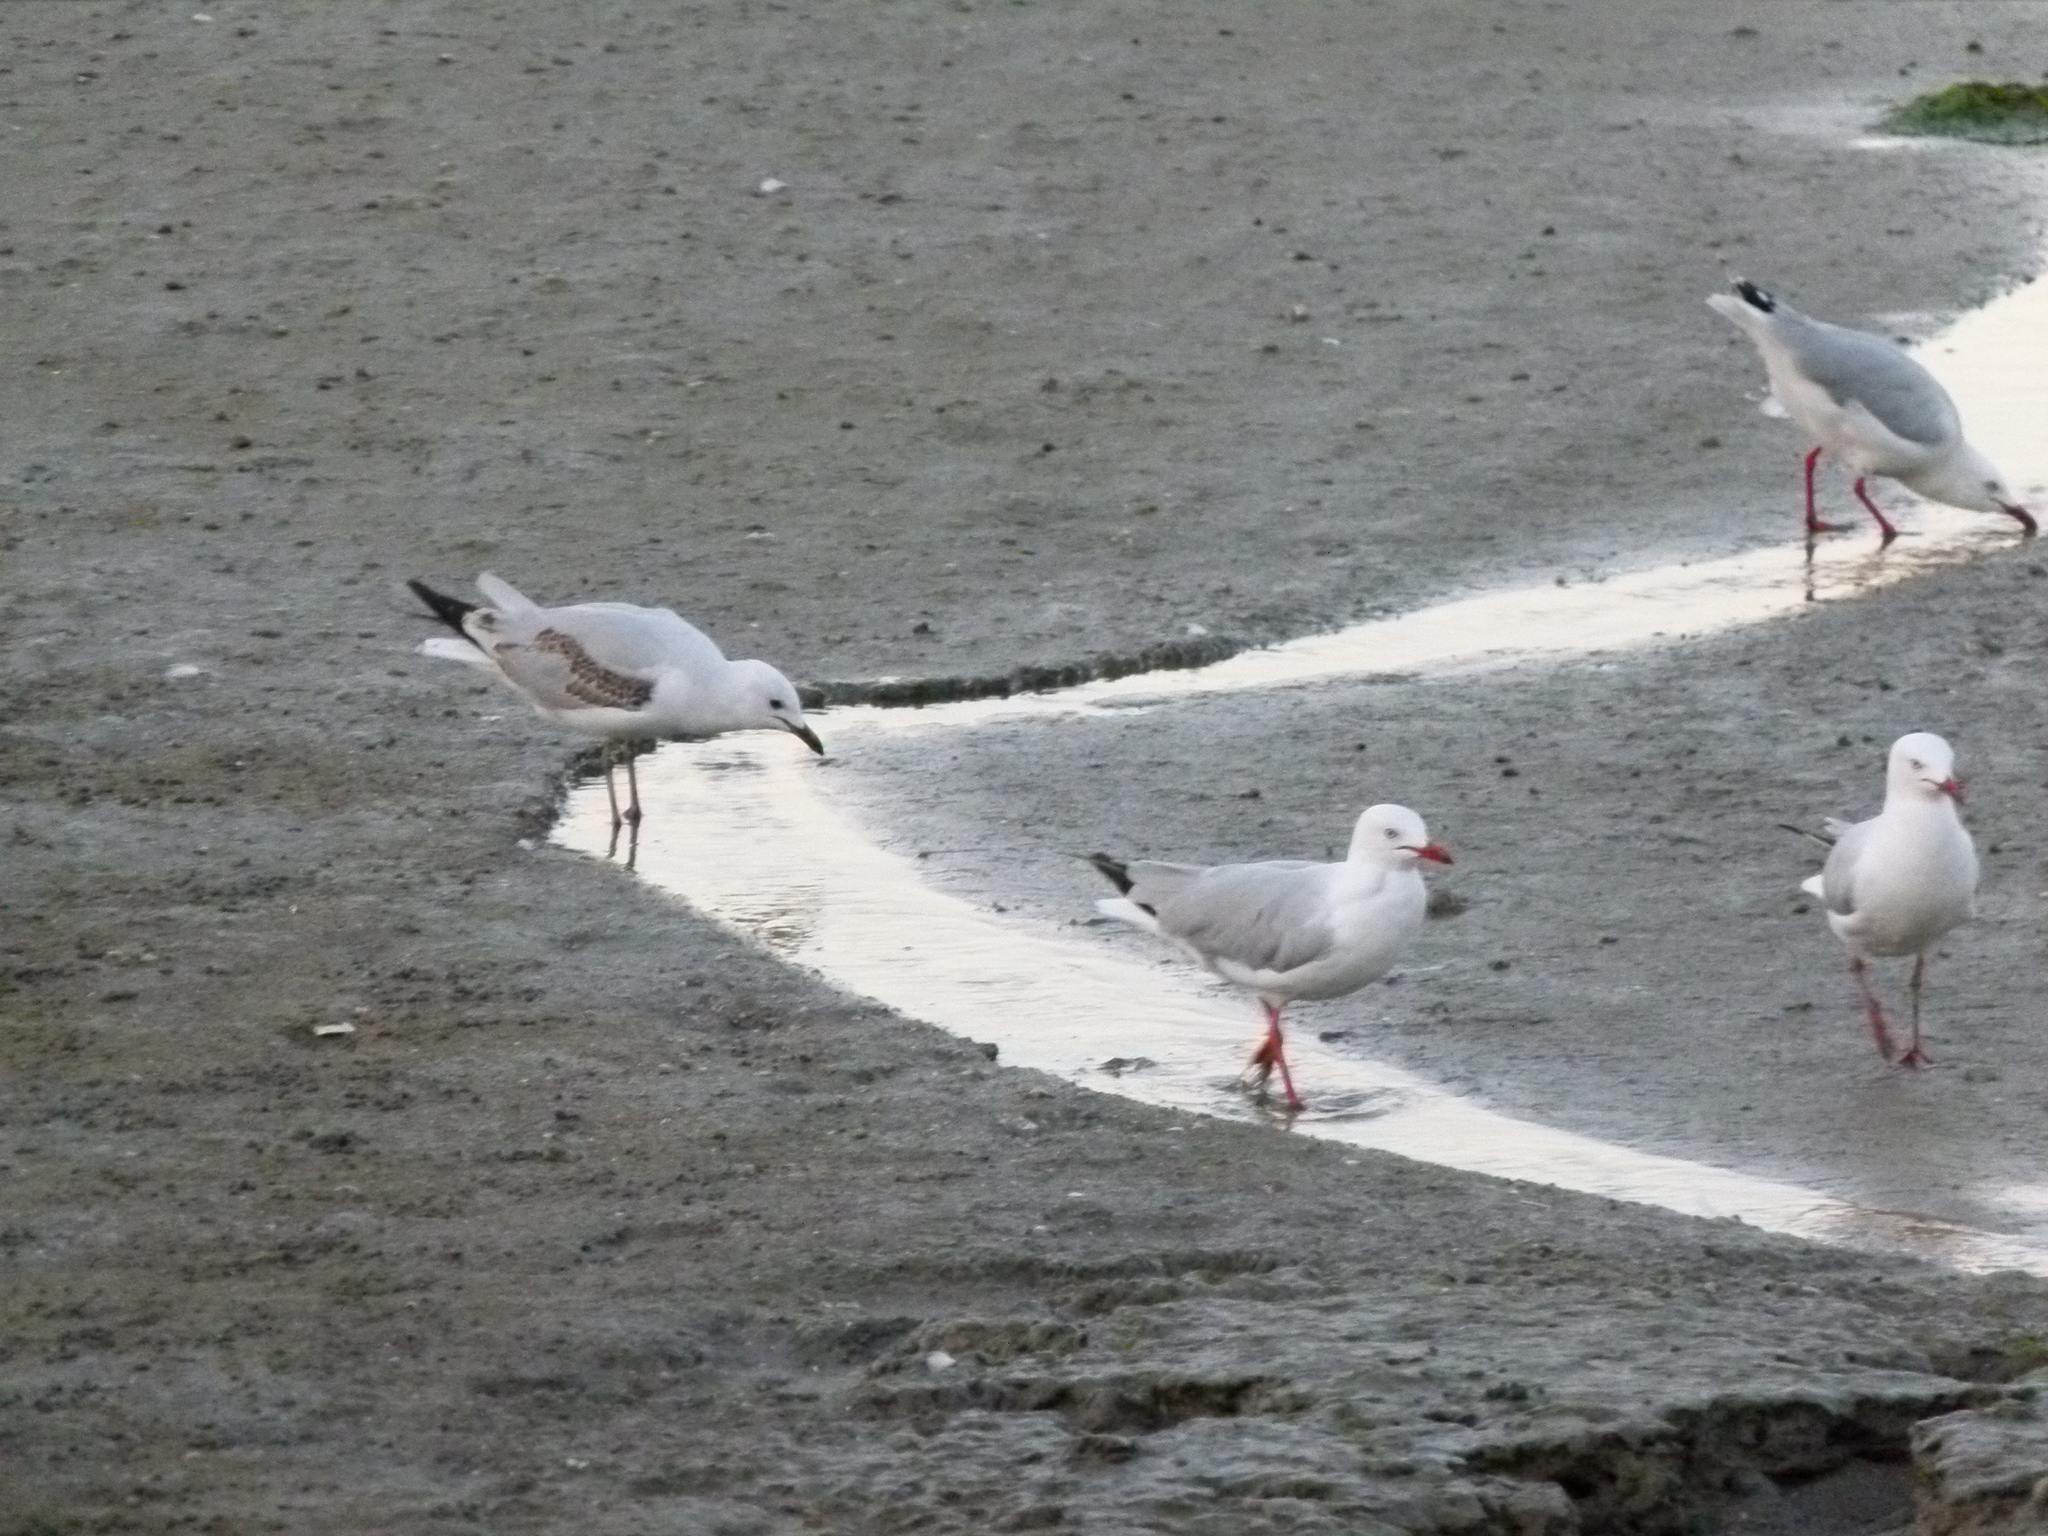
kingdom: Animalia
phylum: Chordata
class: Aves
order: Charadriiformes
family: Laridae
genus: Chroicocephalus
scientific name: Chroicocephalus novaehollandiae
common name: Silver gull
